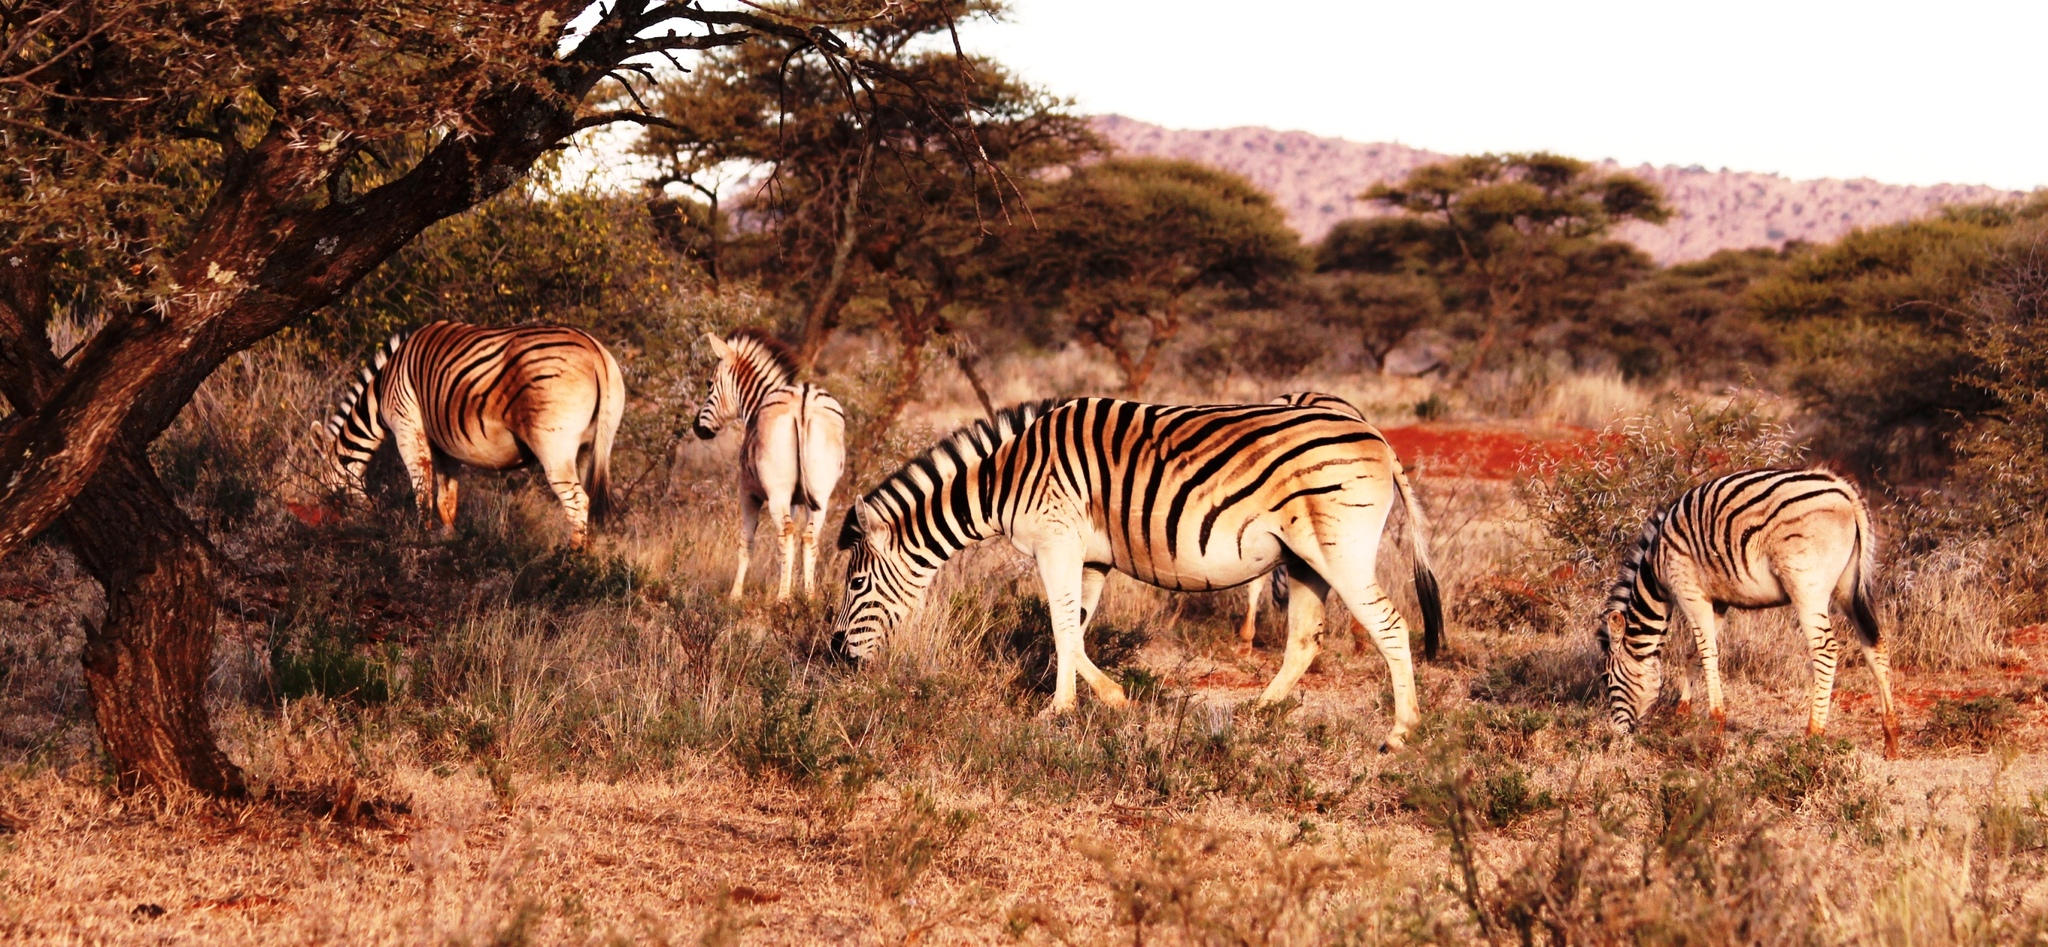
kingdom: Animalia
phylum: Chordata
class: Mammalia
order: Perissodactyla
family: Equidae
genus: Equus
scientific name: Equus quagga
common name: Plains zebra
